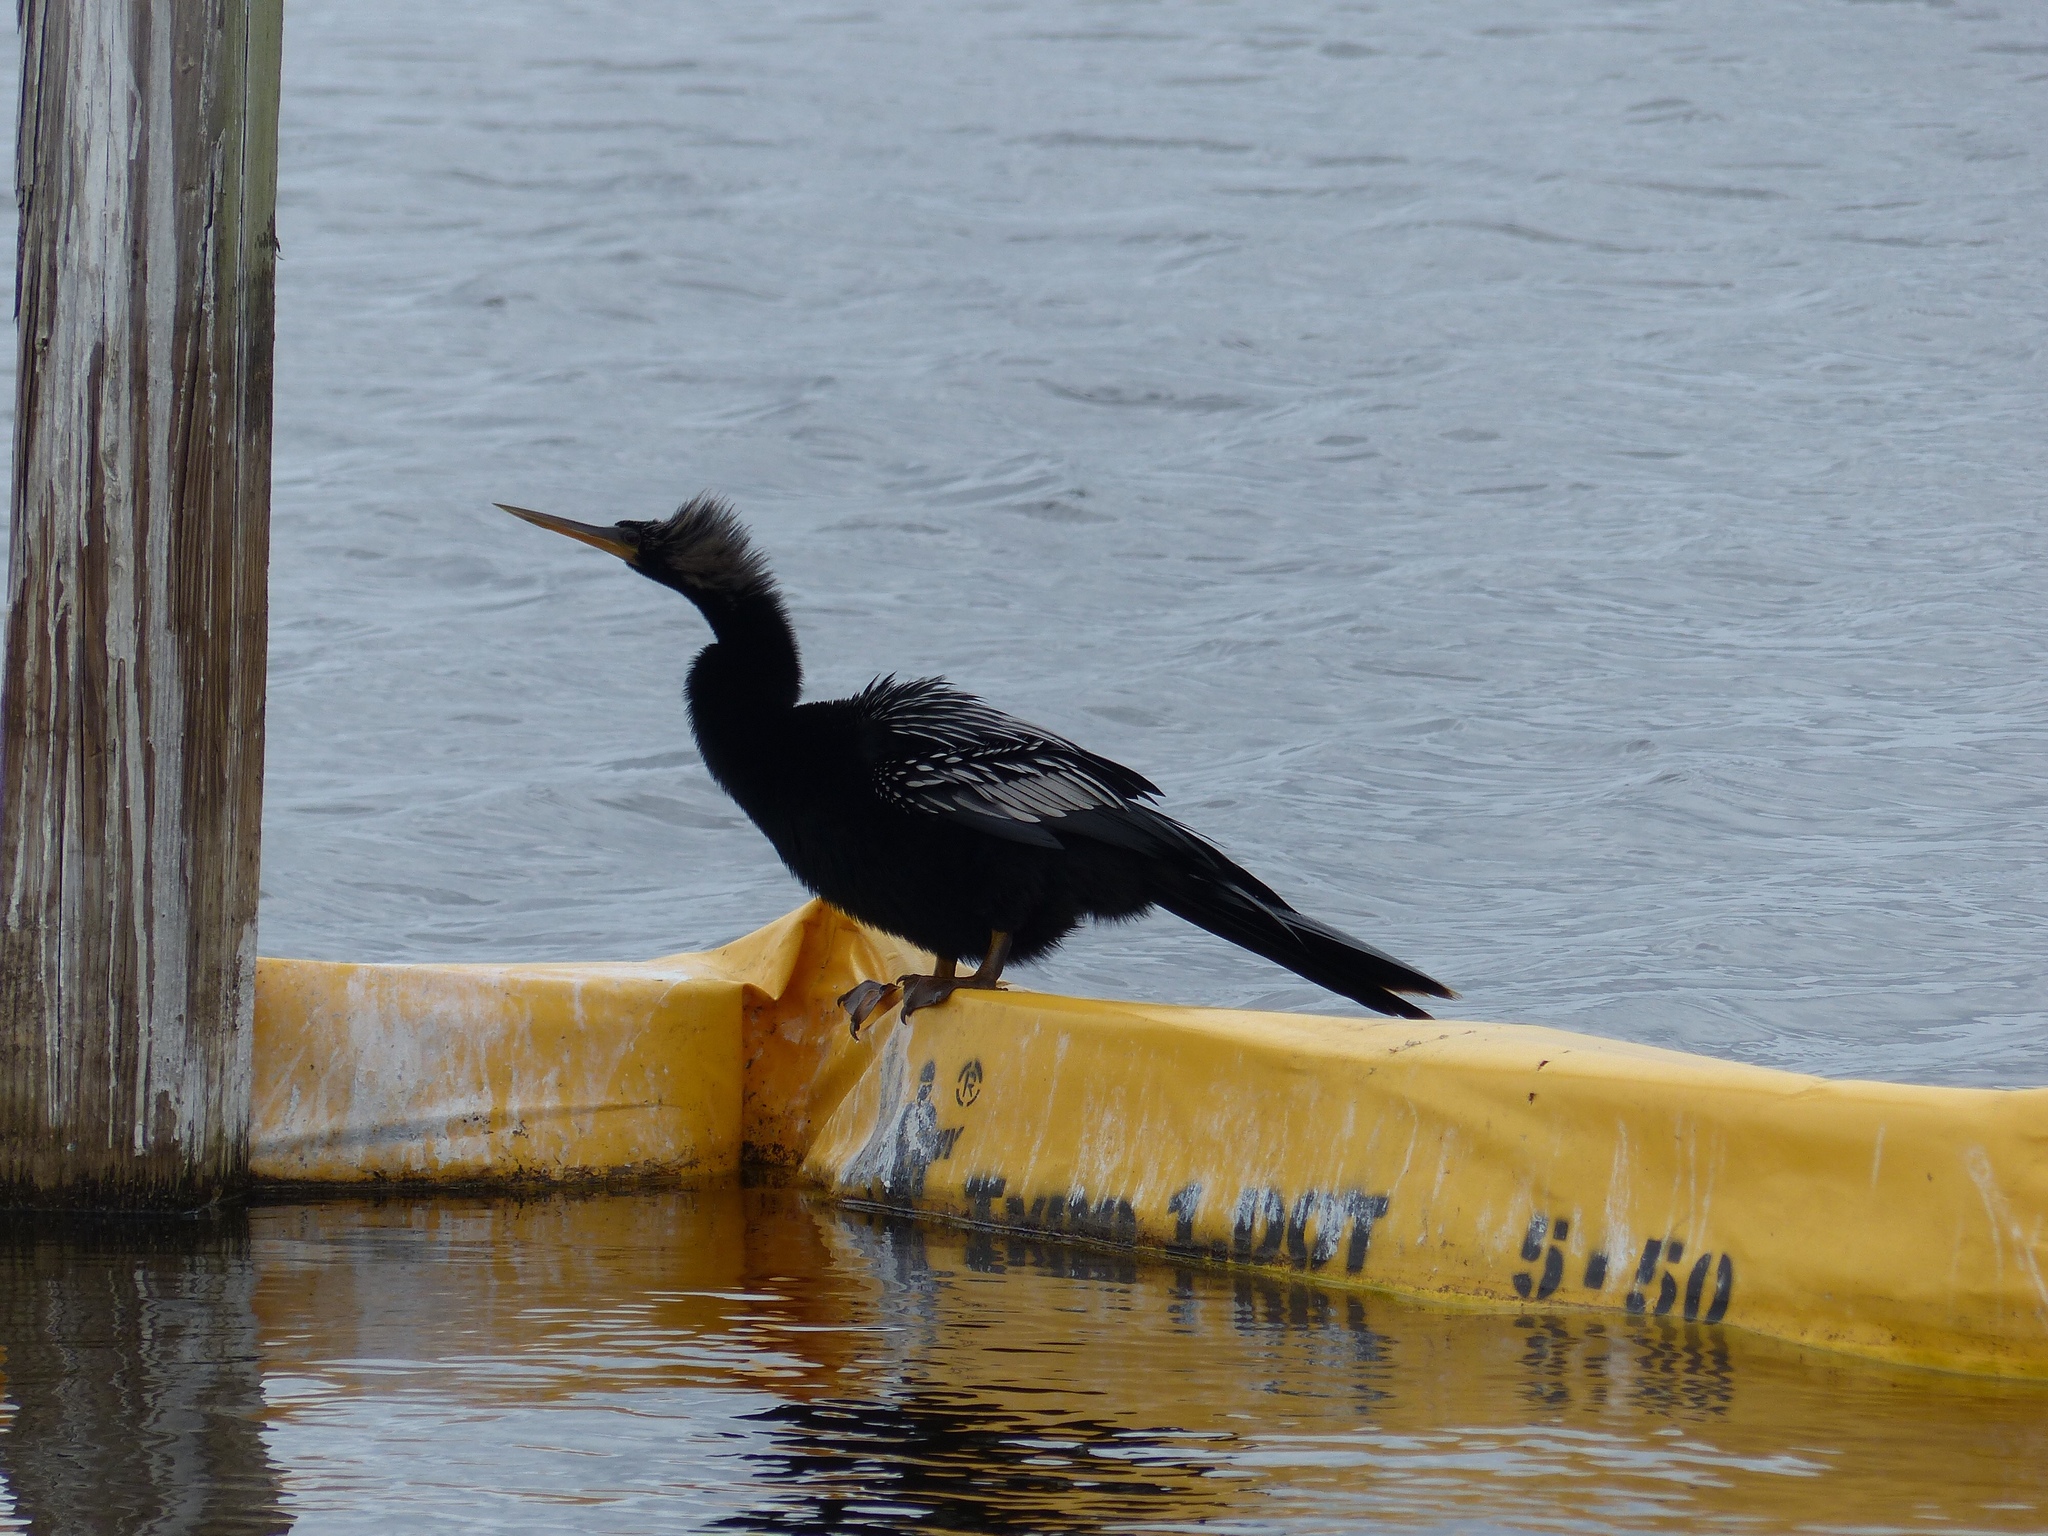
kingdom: Animalia
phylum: Chordata
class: Aves
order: Suliformes
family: Anhingidae
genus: Anhinga
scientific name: Anhinga anhinga
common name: Anhinga
